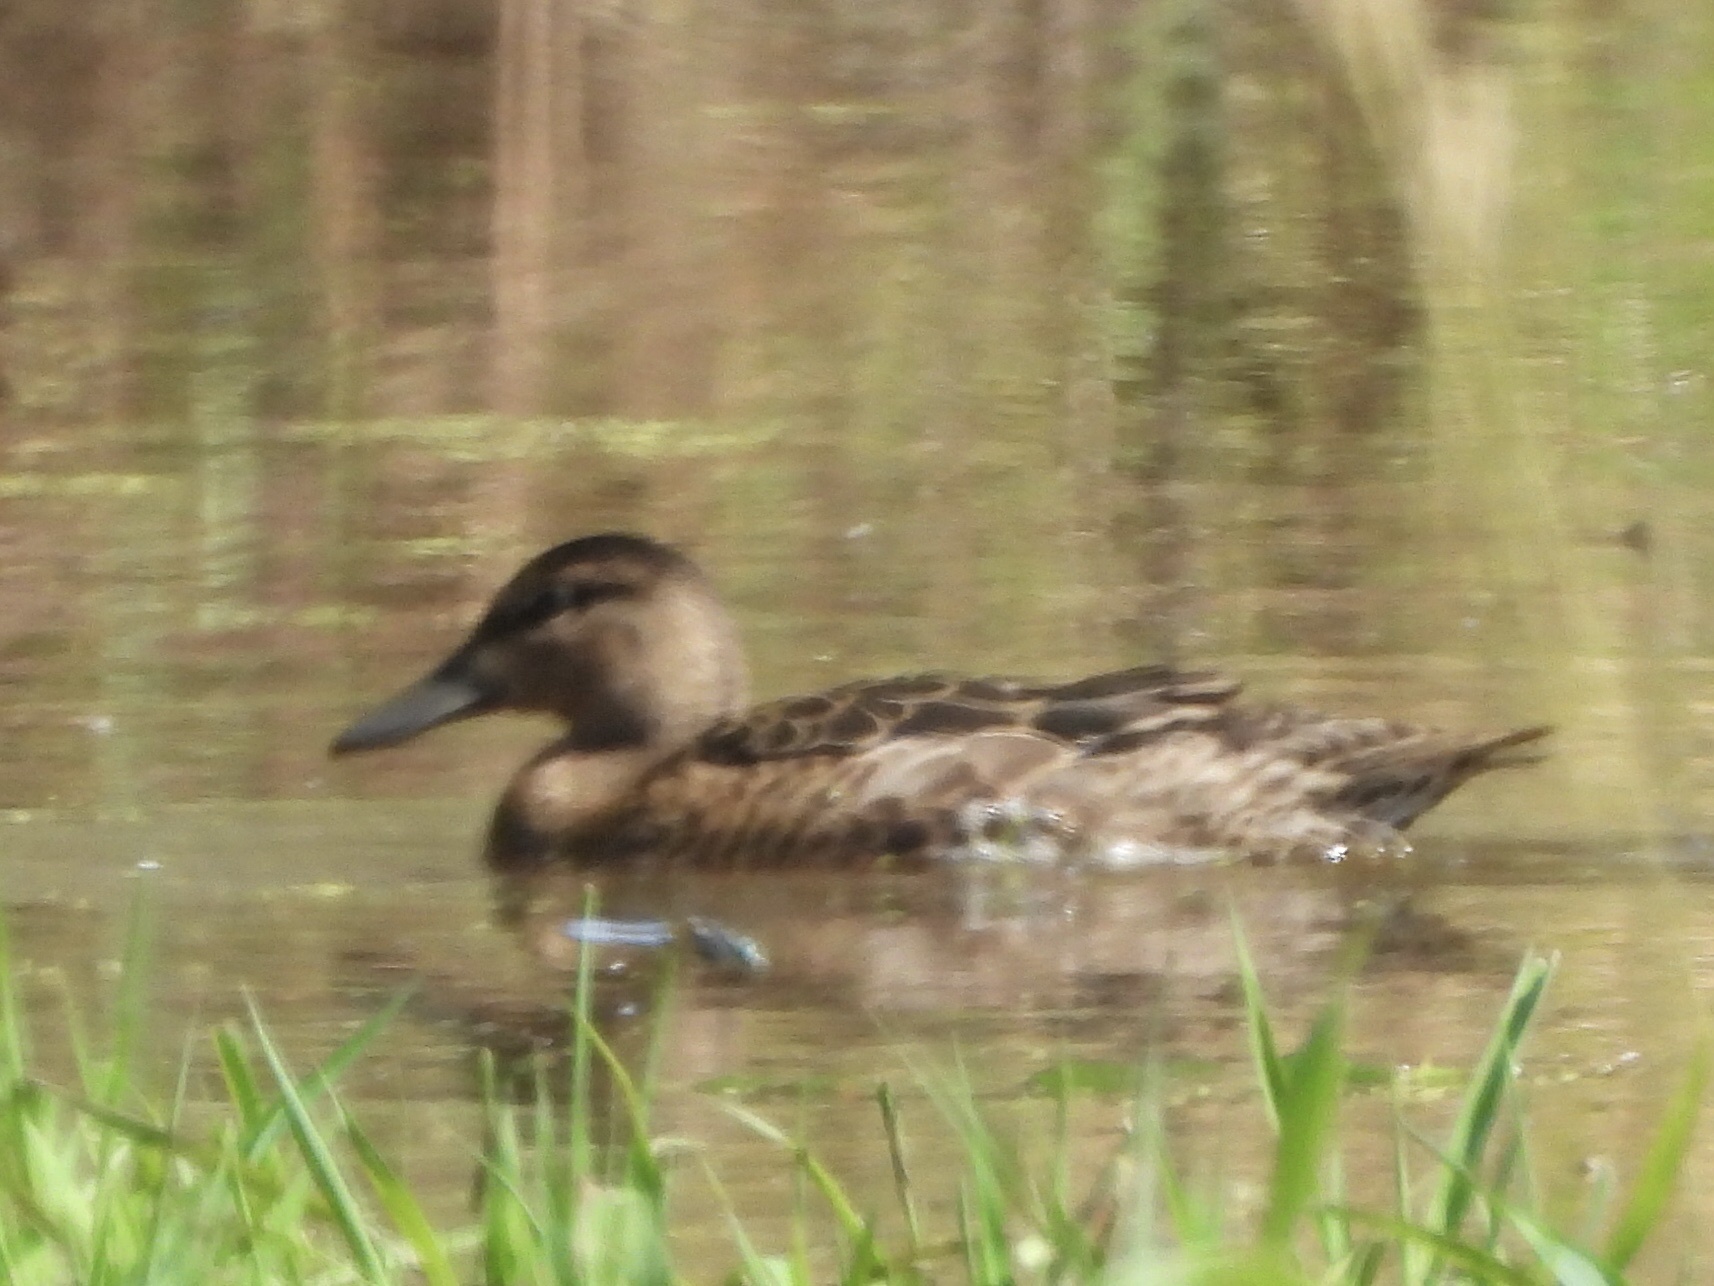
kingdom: Animalia
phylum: Chordata
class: Aves
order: Anseriformes
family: Anatidae
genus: Spatula
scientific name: Spatula cyanoptera
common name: Cinnamon teal
